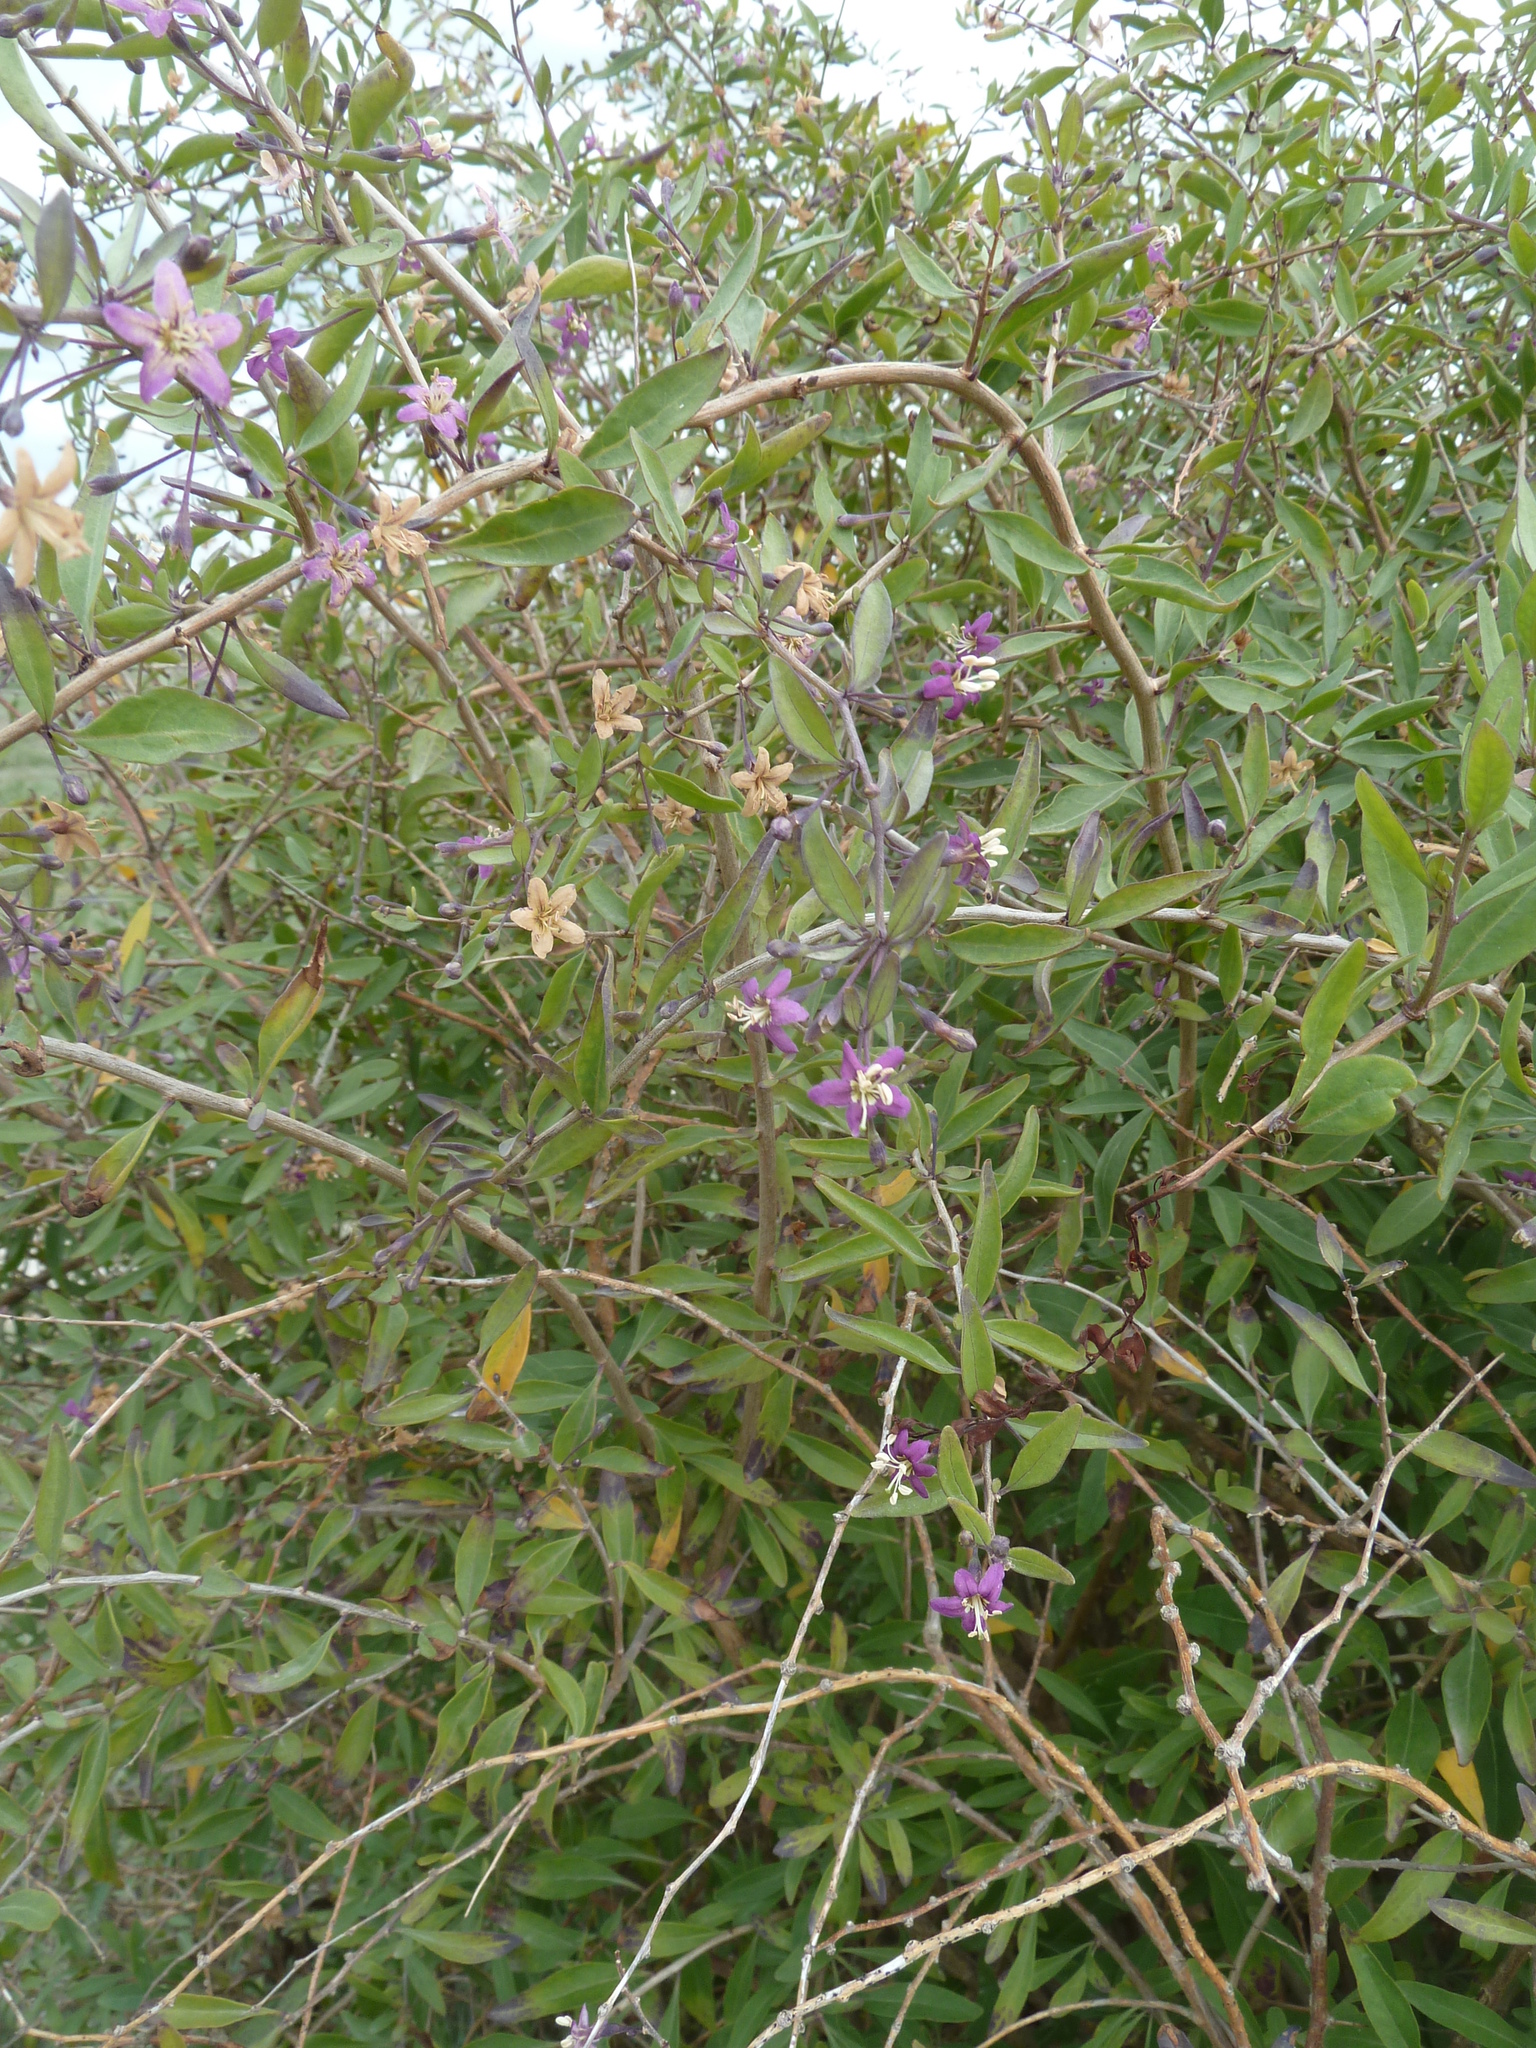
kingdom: Plantae
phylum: Tracheophyta
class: Magnoliopsida
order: Solanales
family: Solanaceae
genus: Lycium
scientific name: Lycium barbarum
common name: Duke of argyll's teaplant
